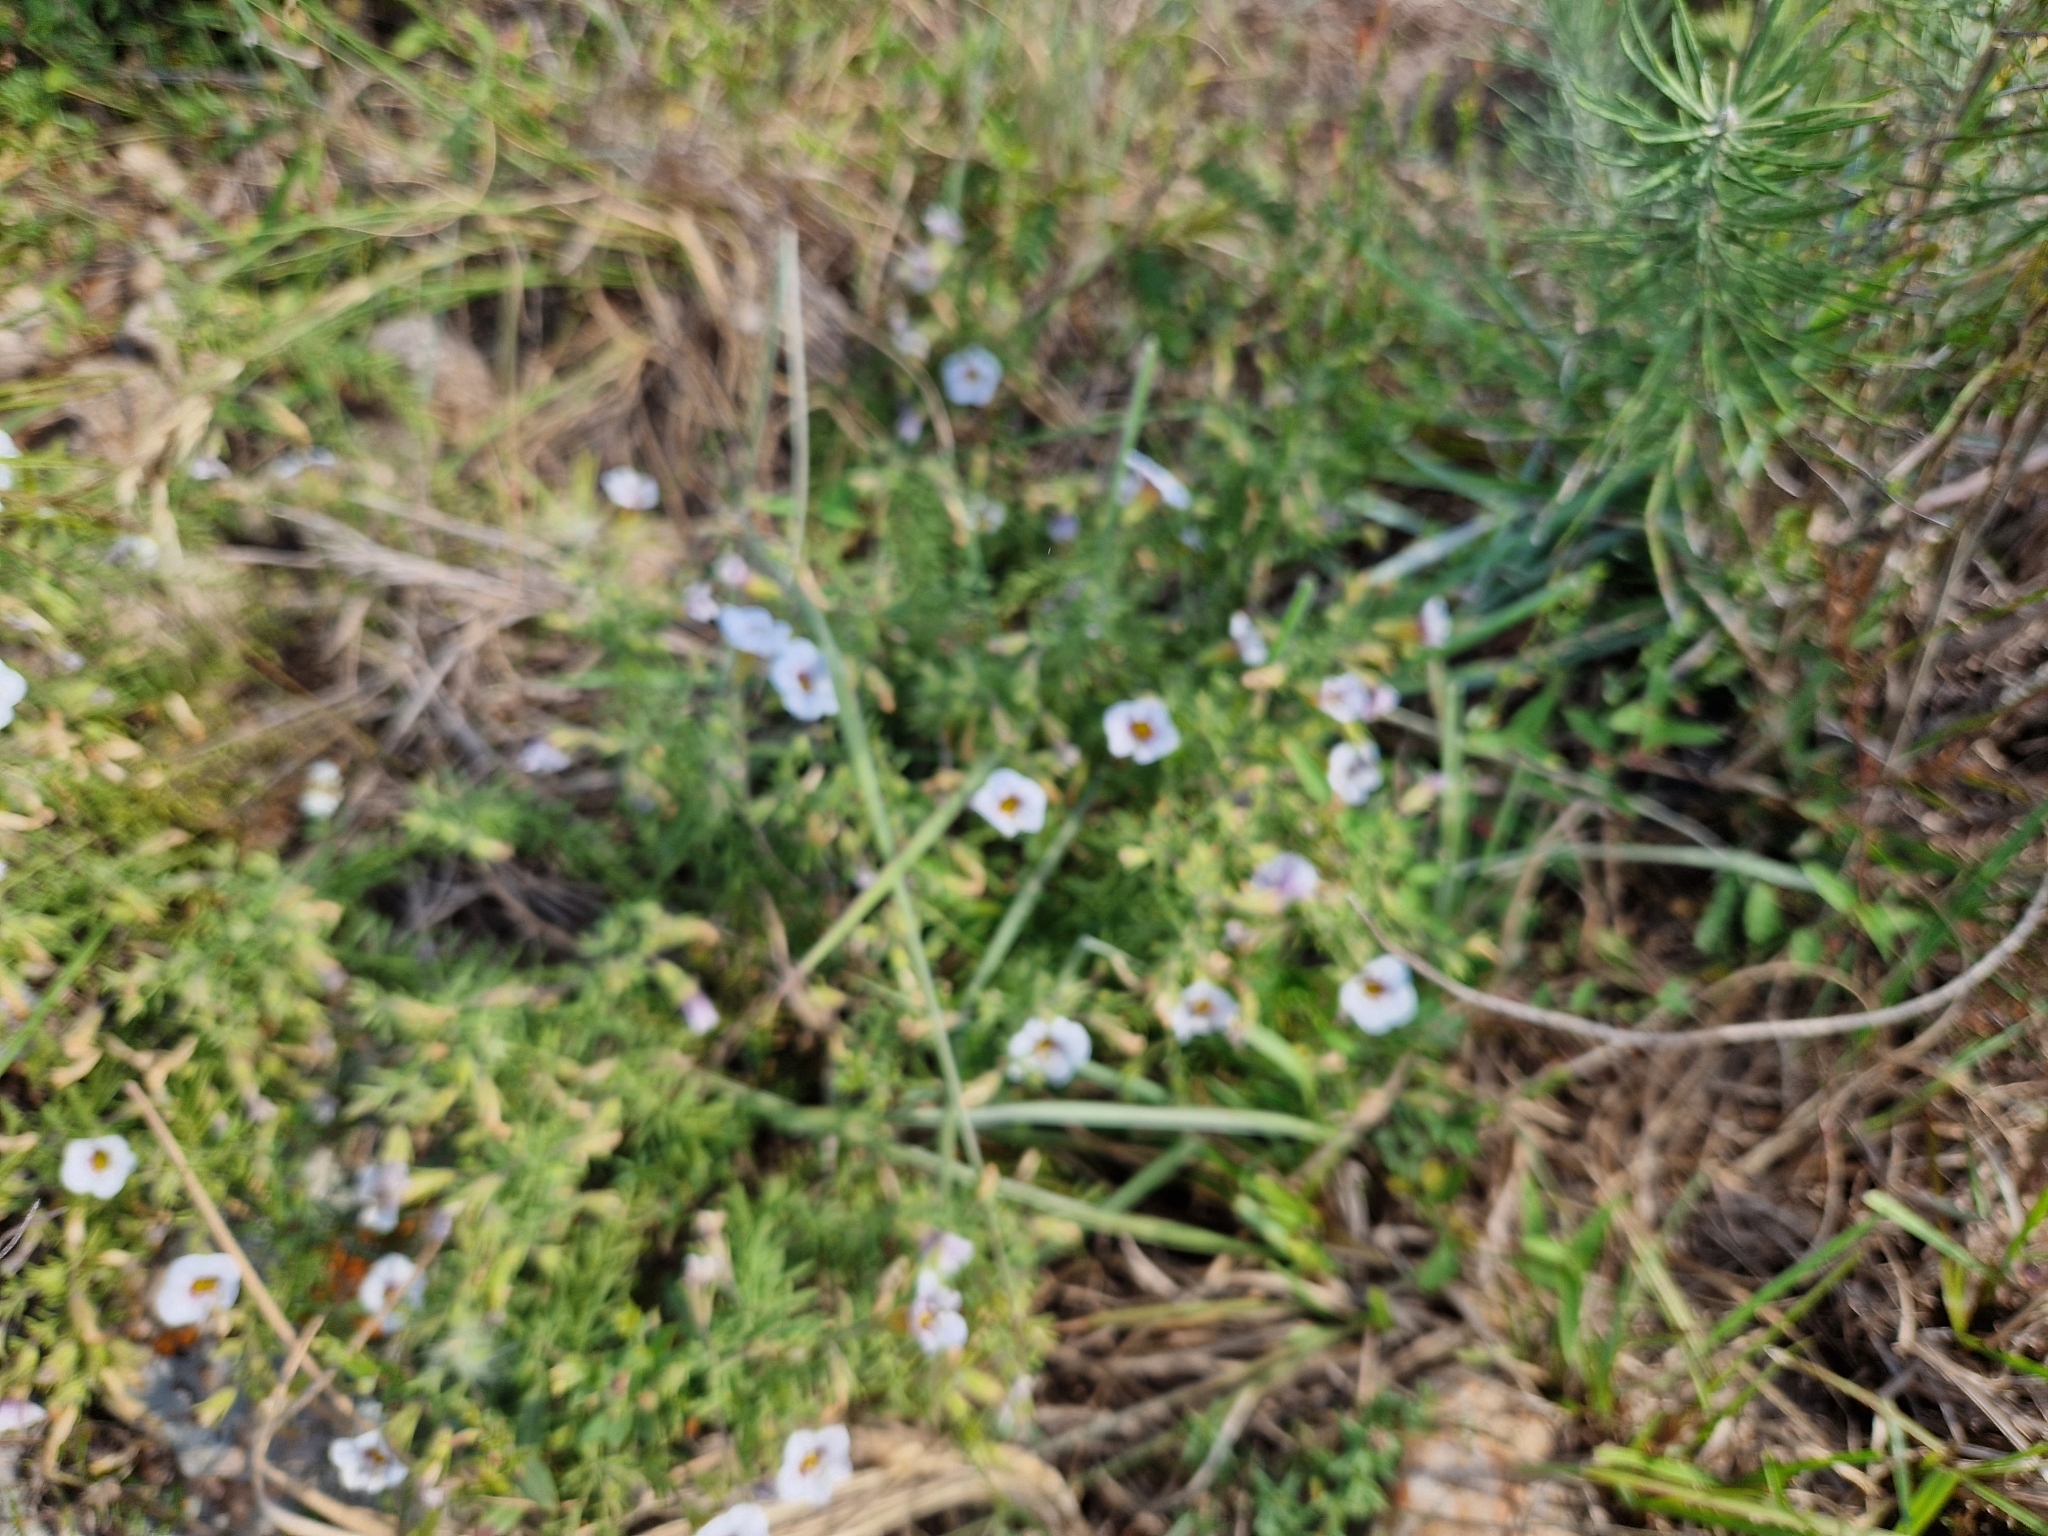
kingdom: Plantae
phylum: Tracheophyta
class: Magnoliopsida
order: Solanales
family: Solanaceae
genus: Calibrachoa
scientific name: Calibrachoa humilis
